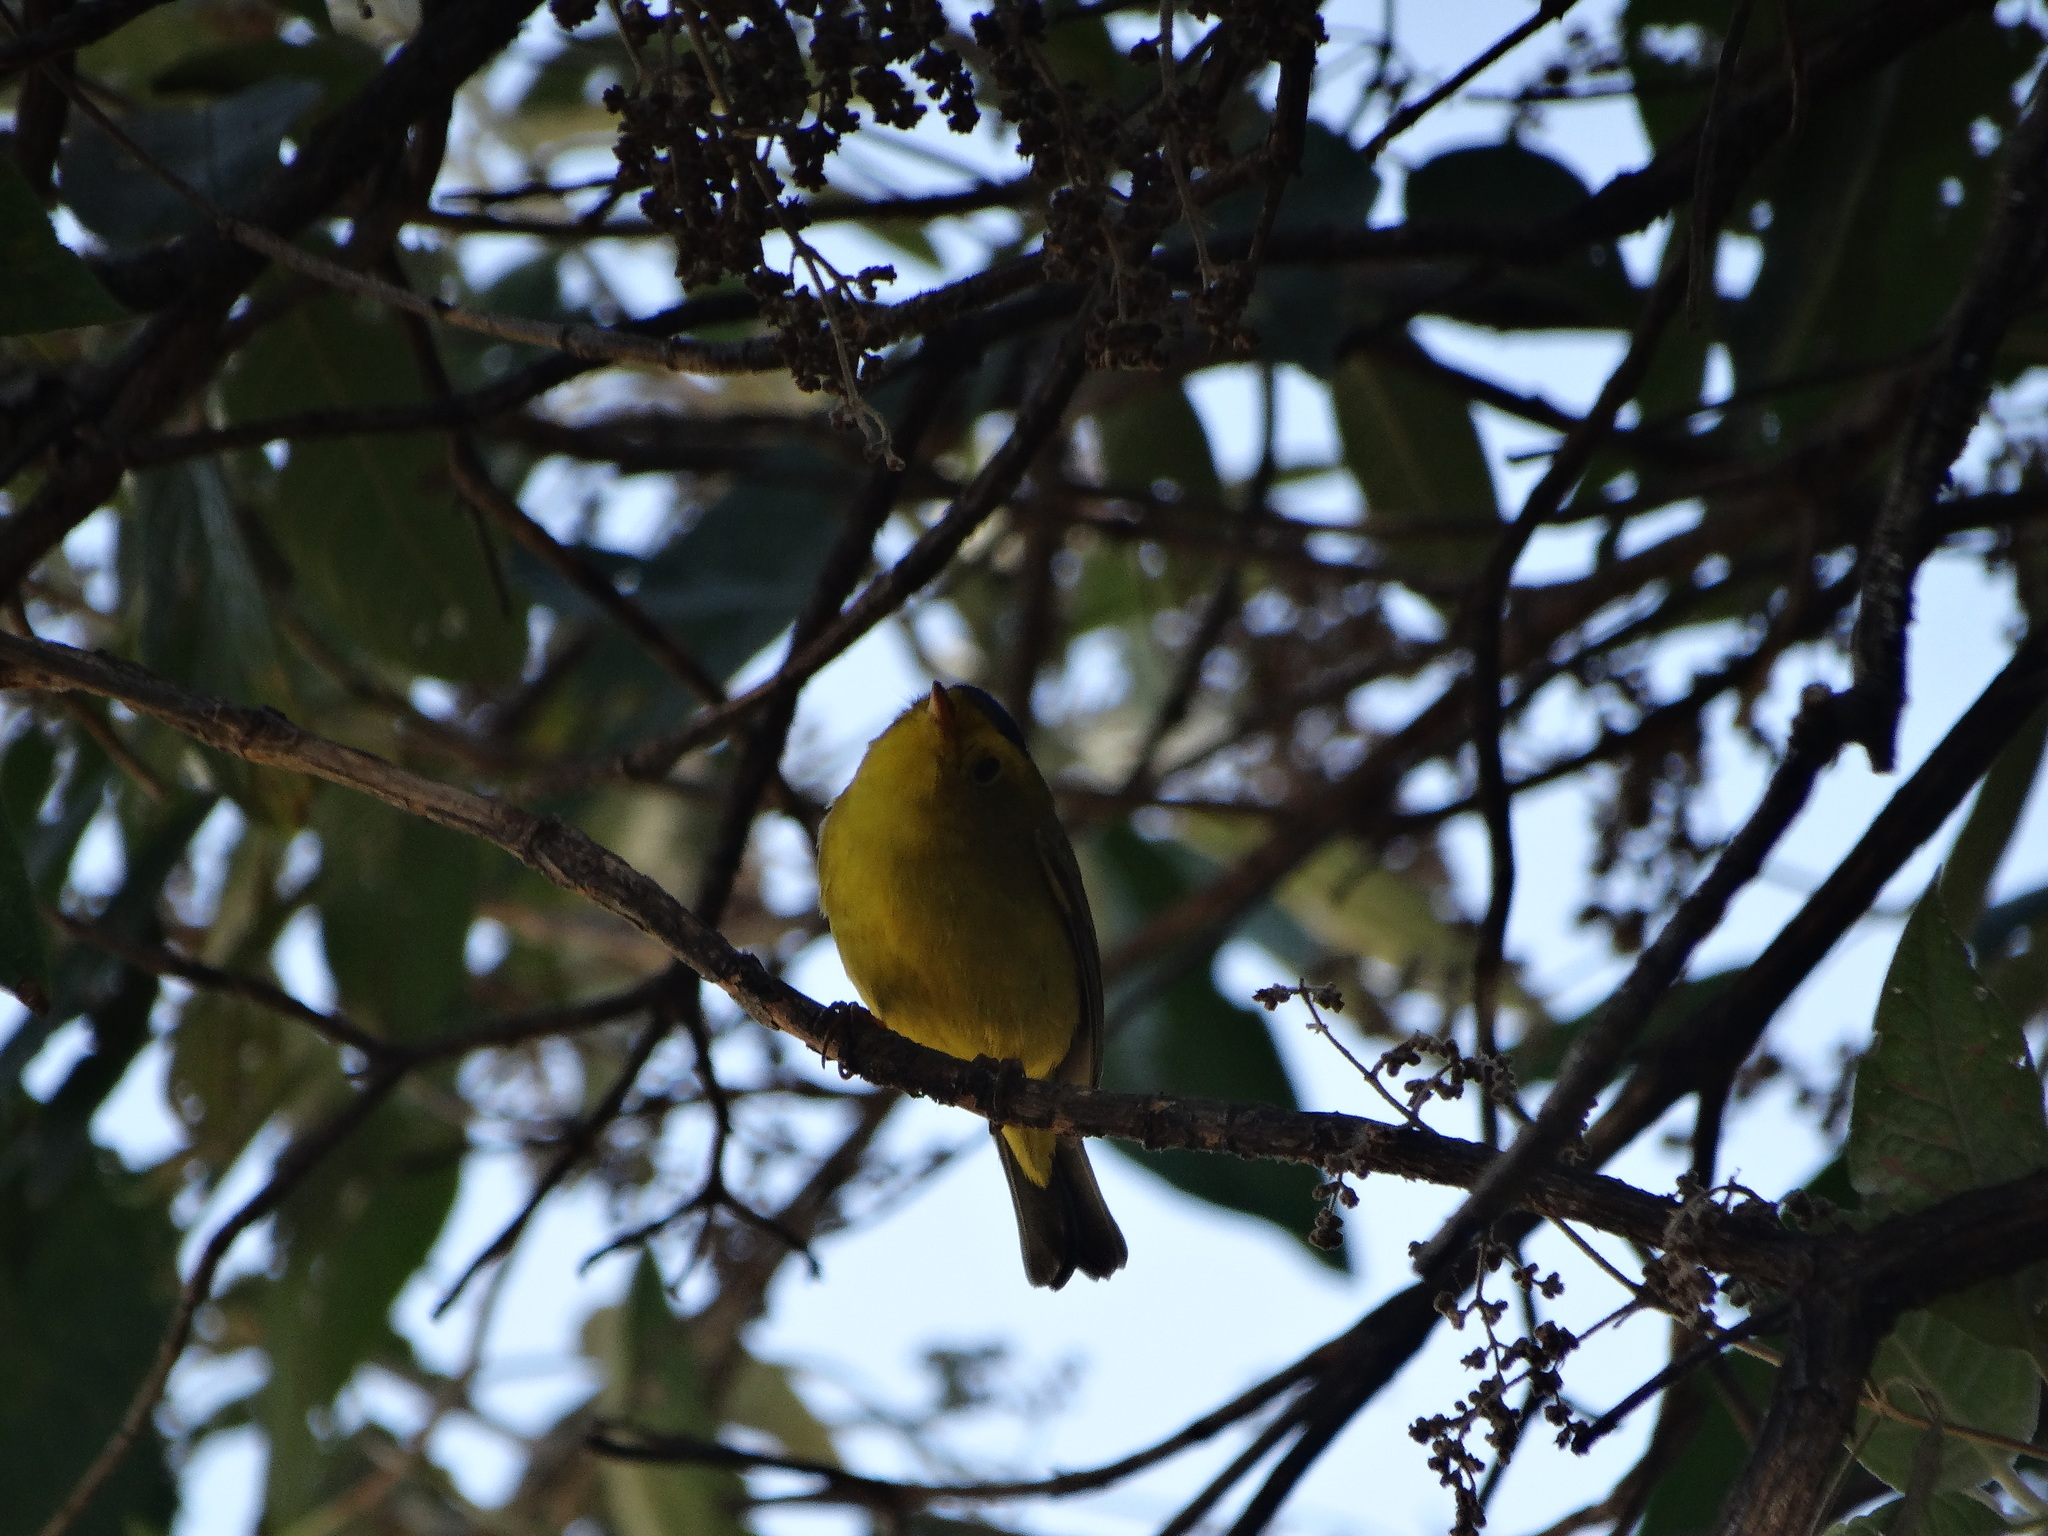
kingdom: Animalia
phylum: Chordata
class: Aves
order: Passeriformes
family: Parulidae
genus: Cardellina
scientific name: Cardellina pusilla
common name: Wilson's warbler
